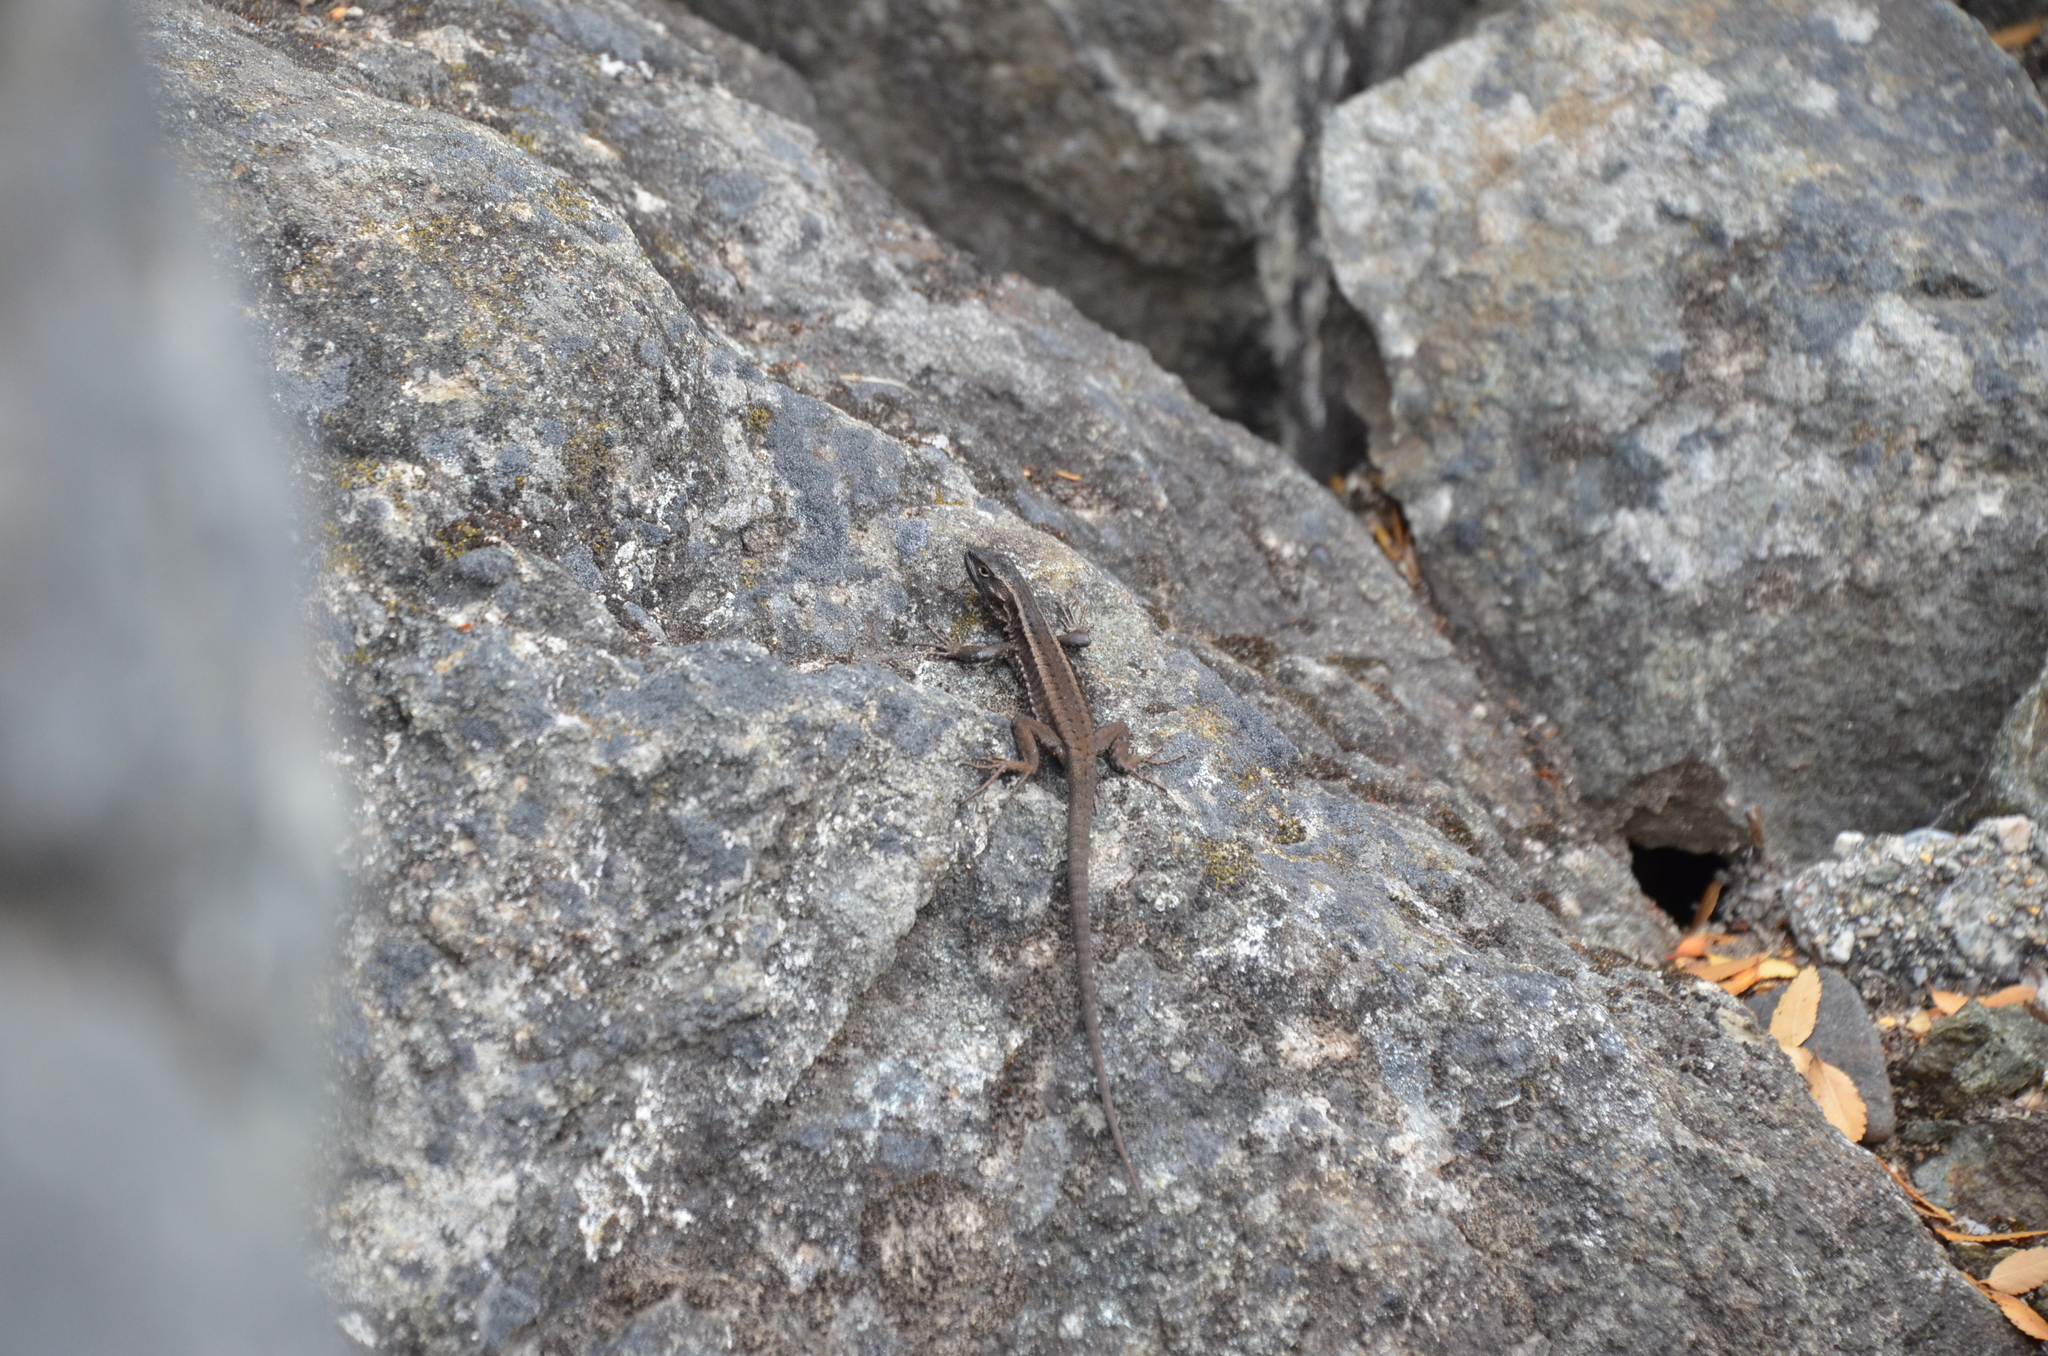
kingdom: Animalia
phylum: Chordata
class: Squamata
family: Liolaemidae
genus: Liolaemus
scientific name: Liolaemus pictus
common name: Painted tree iguana
